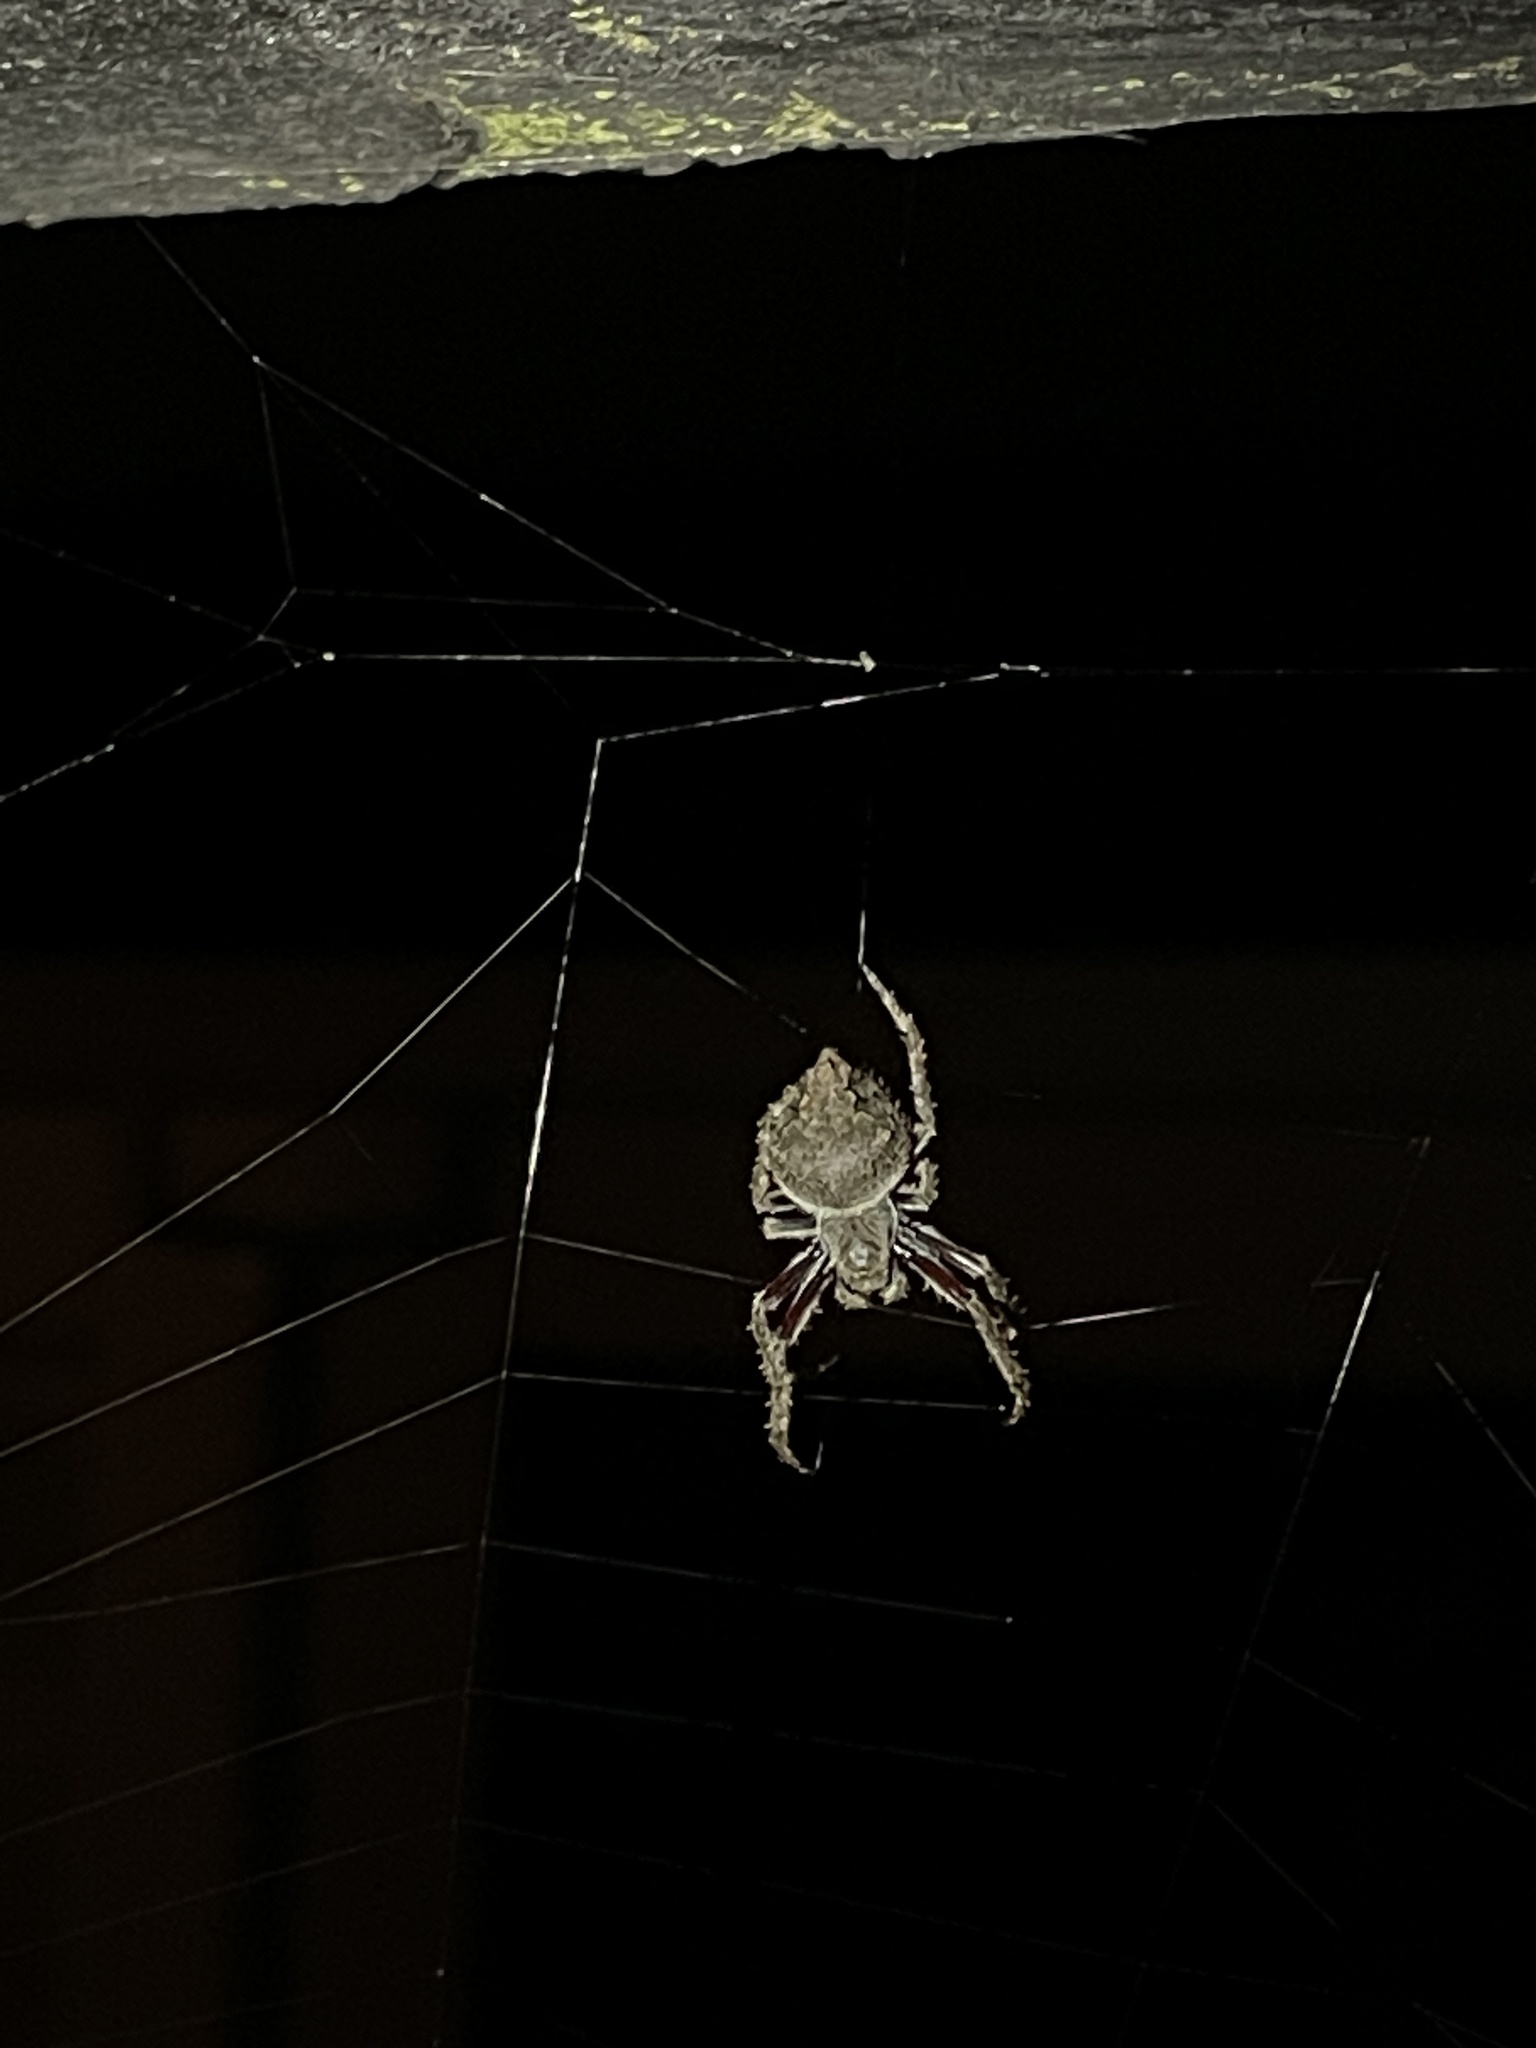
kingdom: Animalia
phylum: Arthropoda
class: Arachnida
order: Araneae
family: Araneidae
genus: Eriophora
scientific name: Eriophora pustulosa
